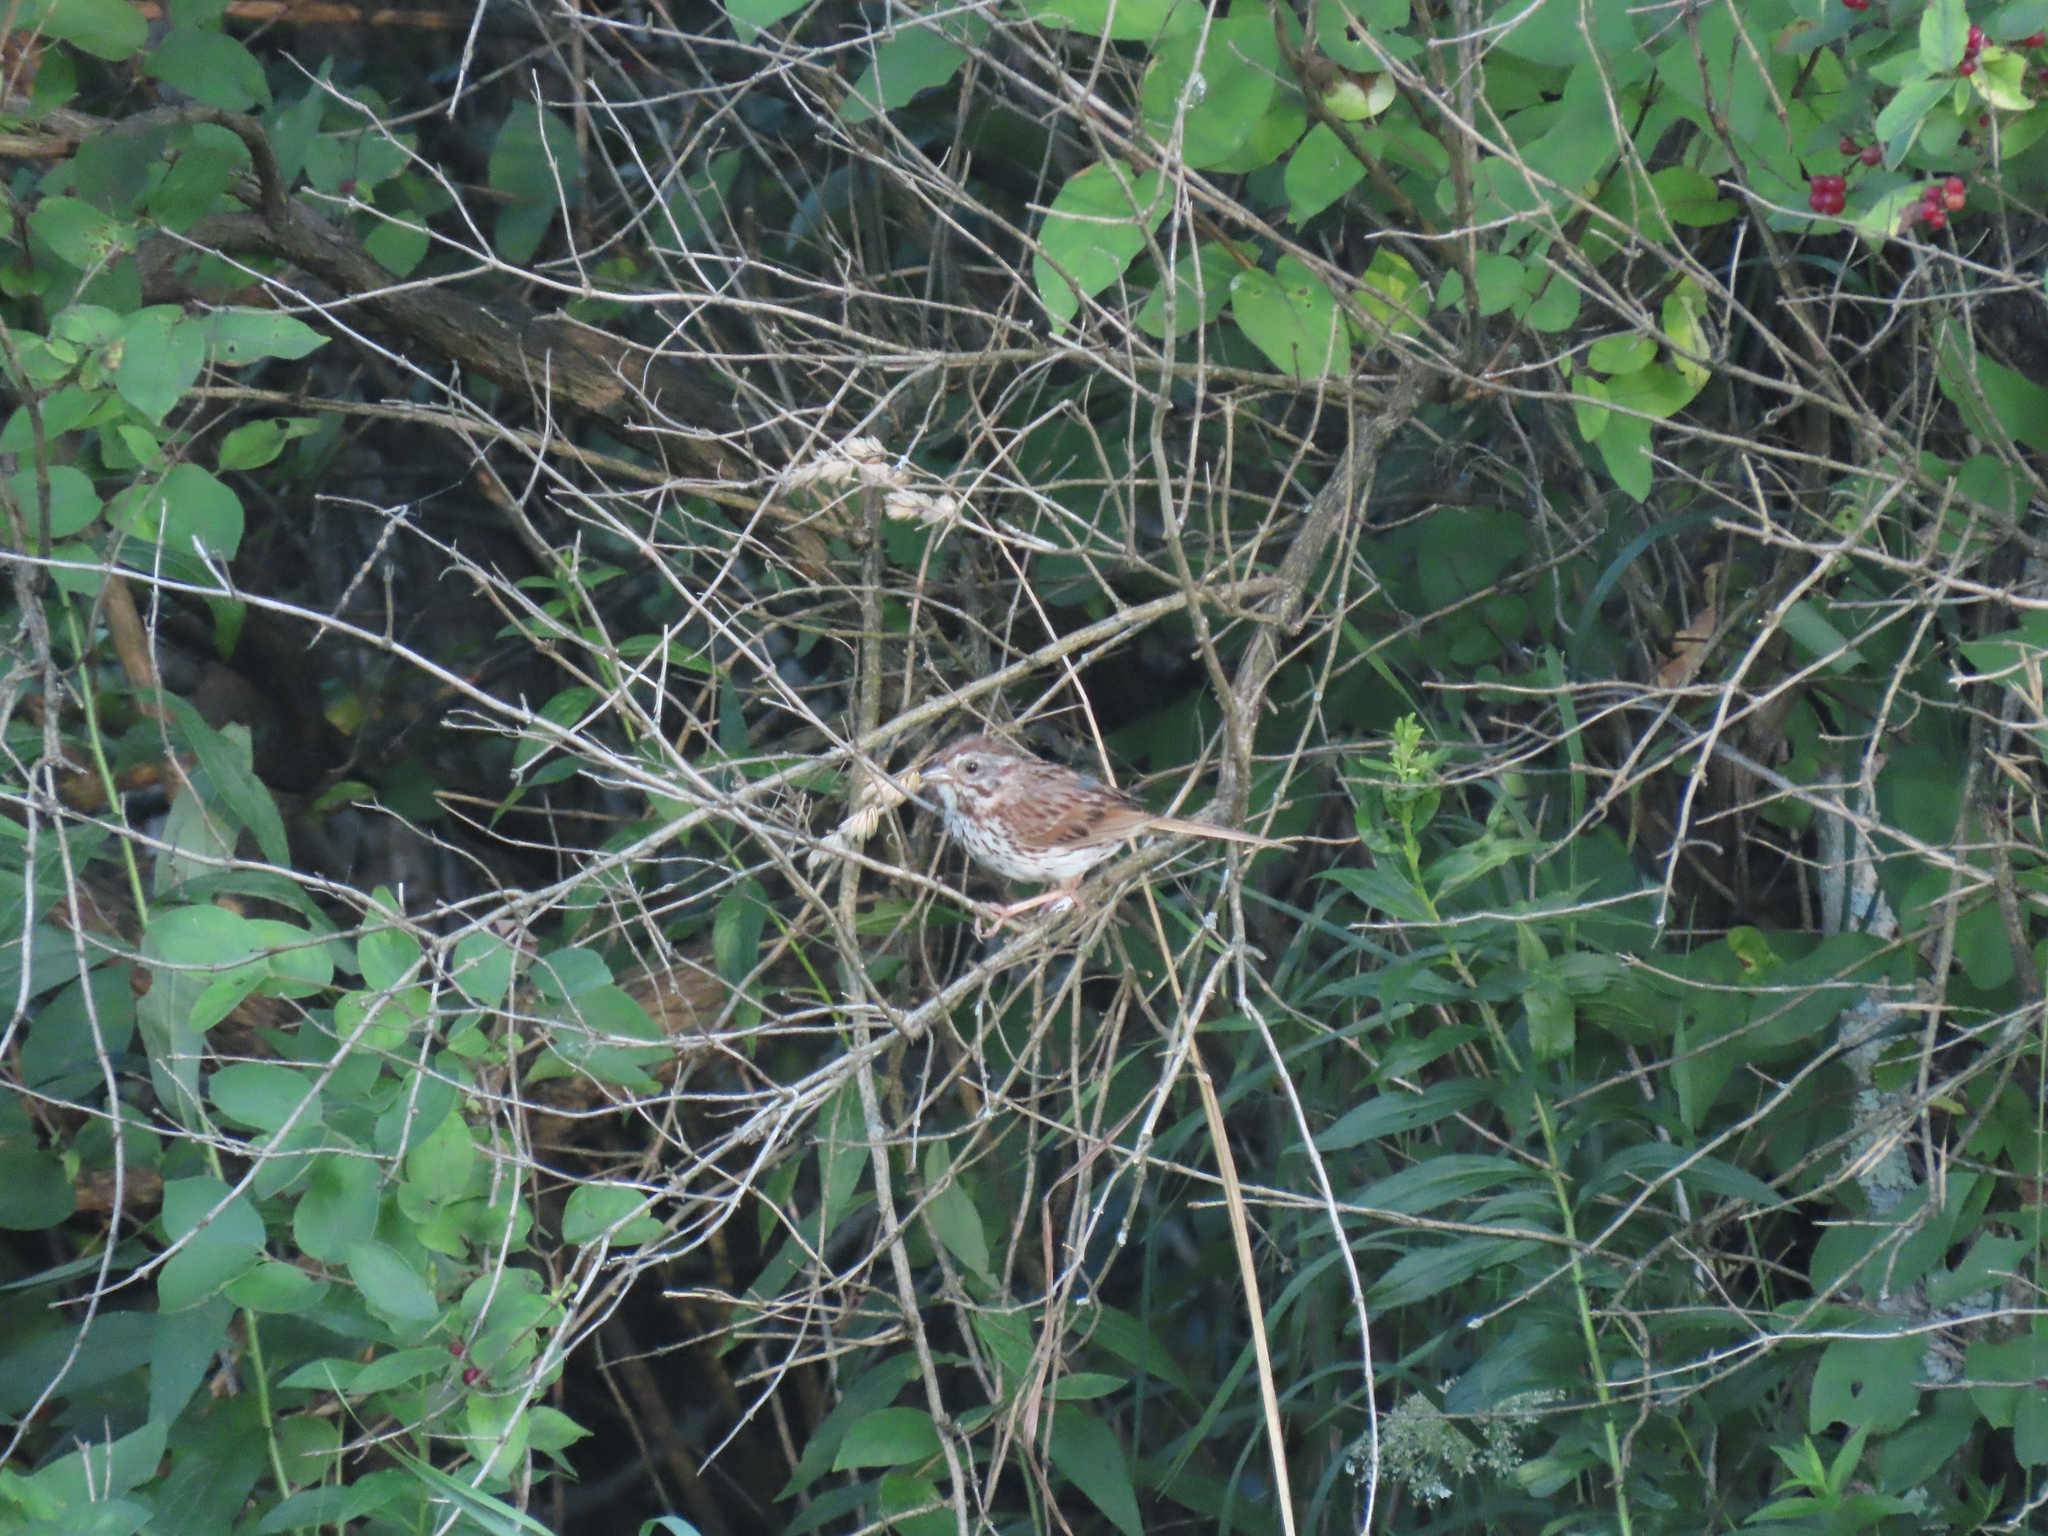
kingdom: Animalia
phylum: Chordata
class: Aves
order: Passeriformes
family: Passerellidae
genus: Melospiza
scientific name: Melospiza melodia
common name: Song sparrow
